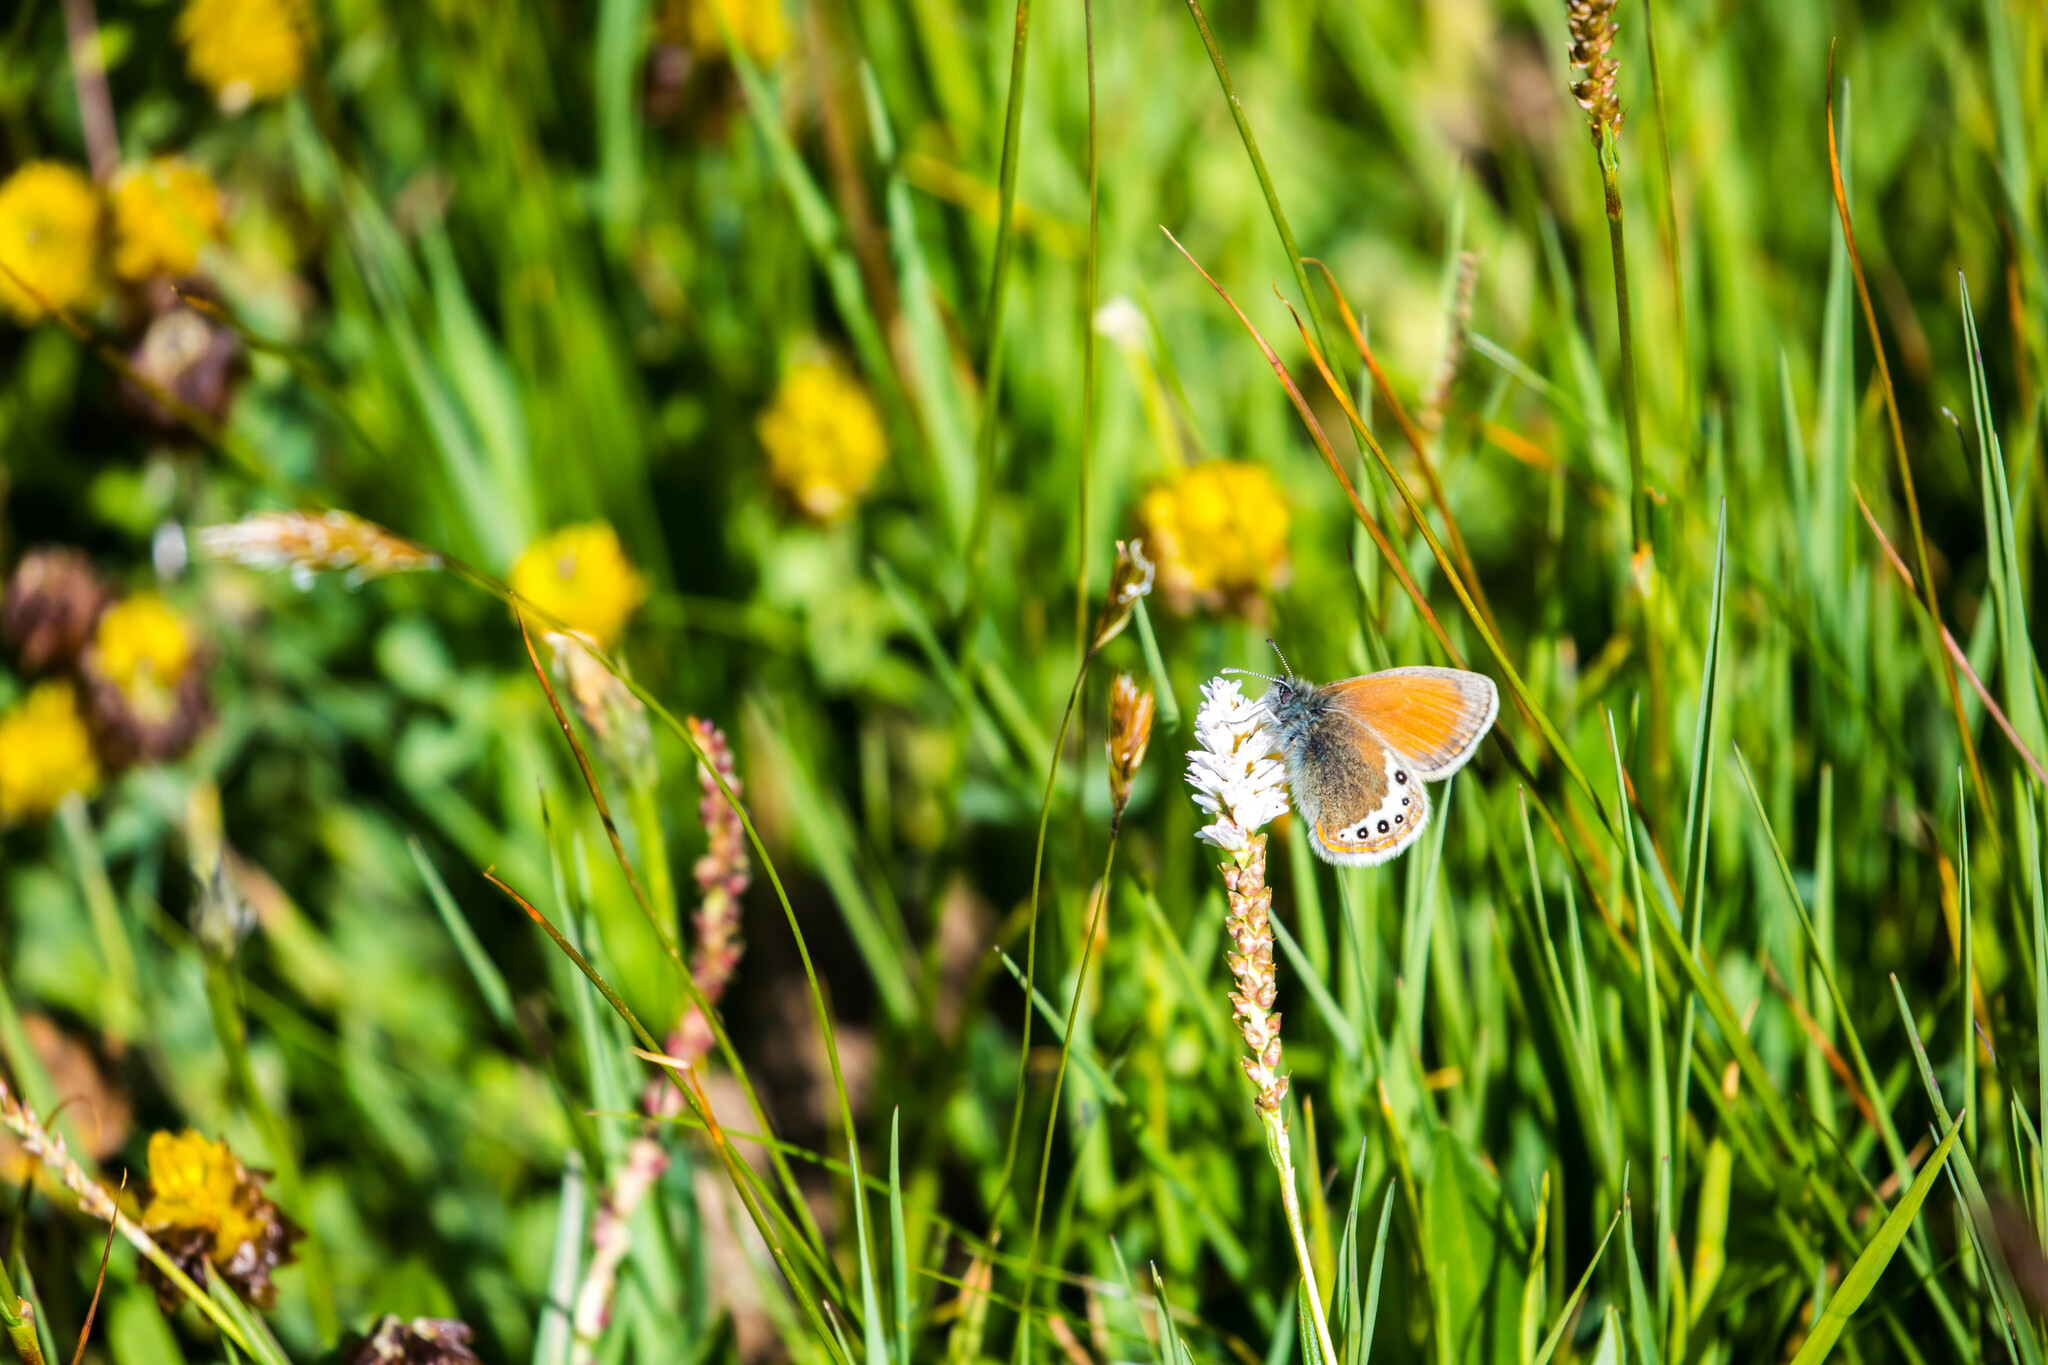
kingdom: Animalia
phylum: Arthropoda
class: Insecta
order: Lepidoptera
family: Nymphalidae
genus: Coenonympha
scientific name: Coenonympha
